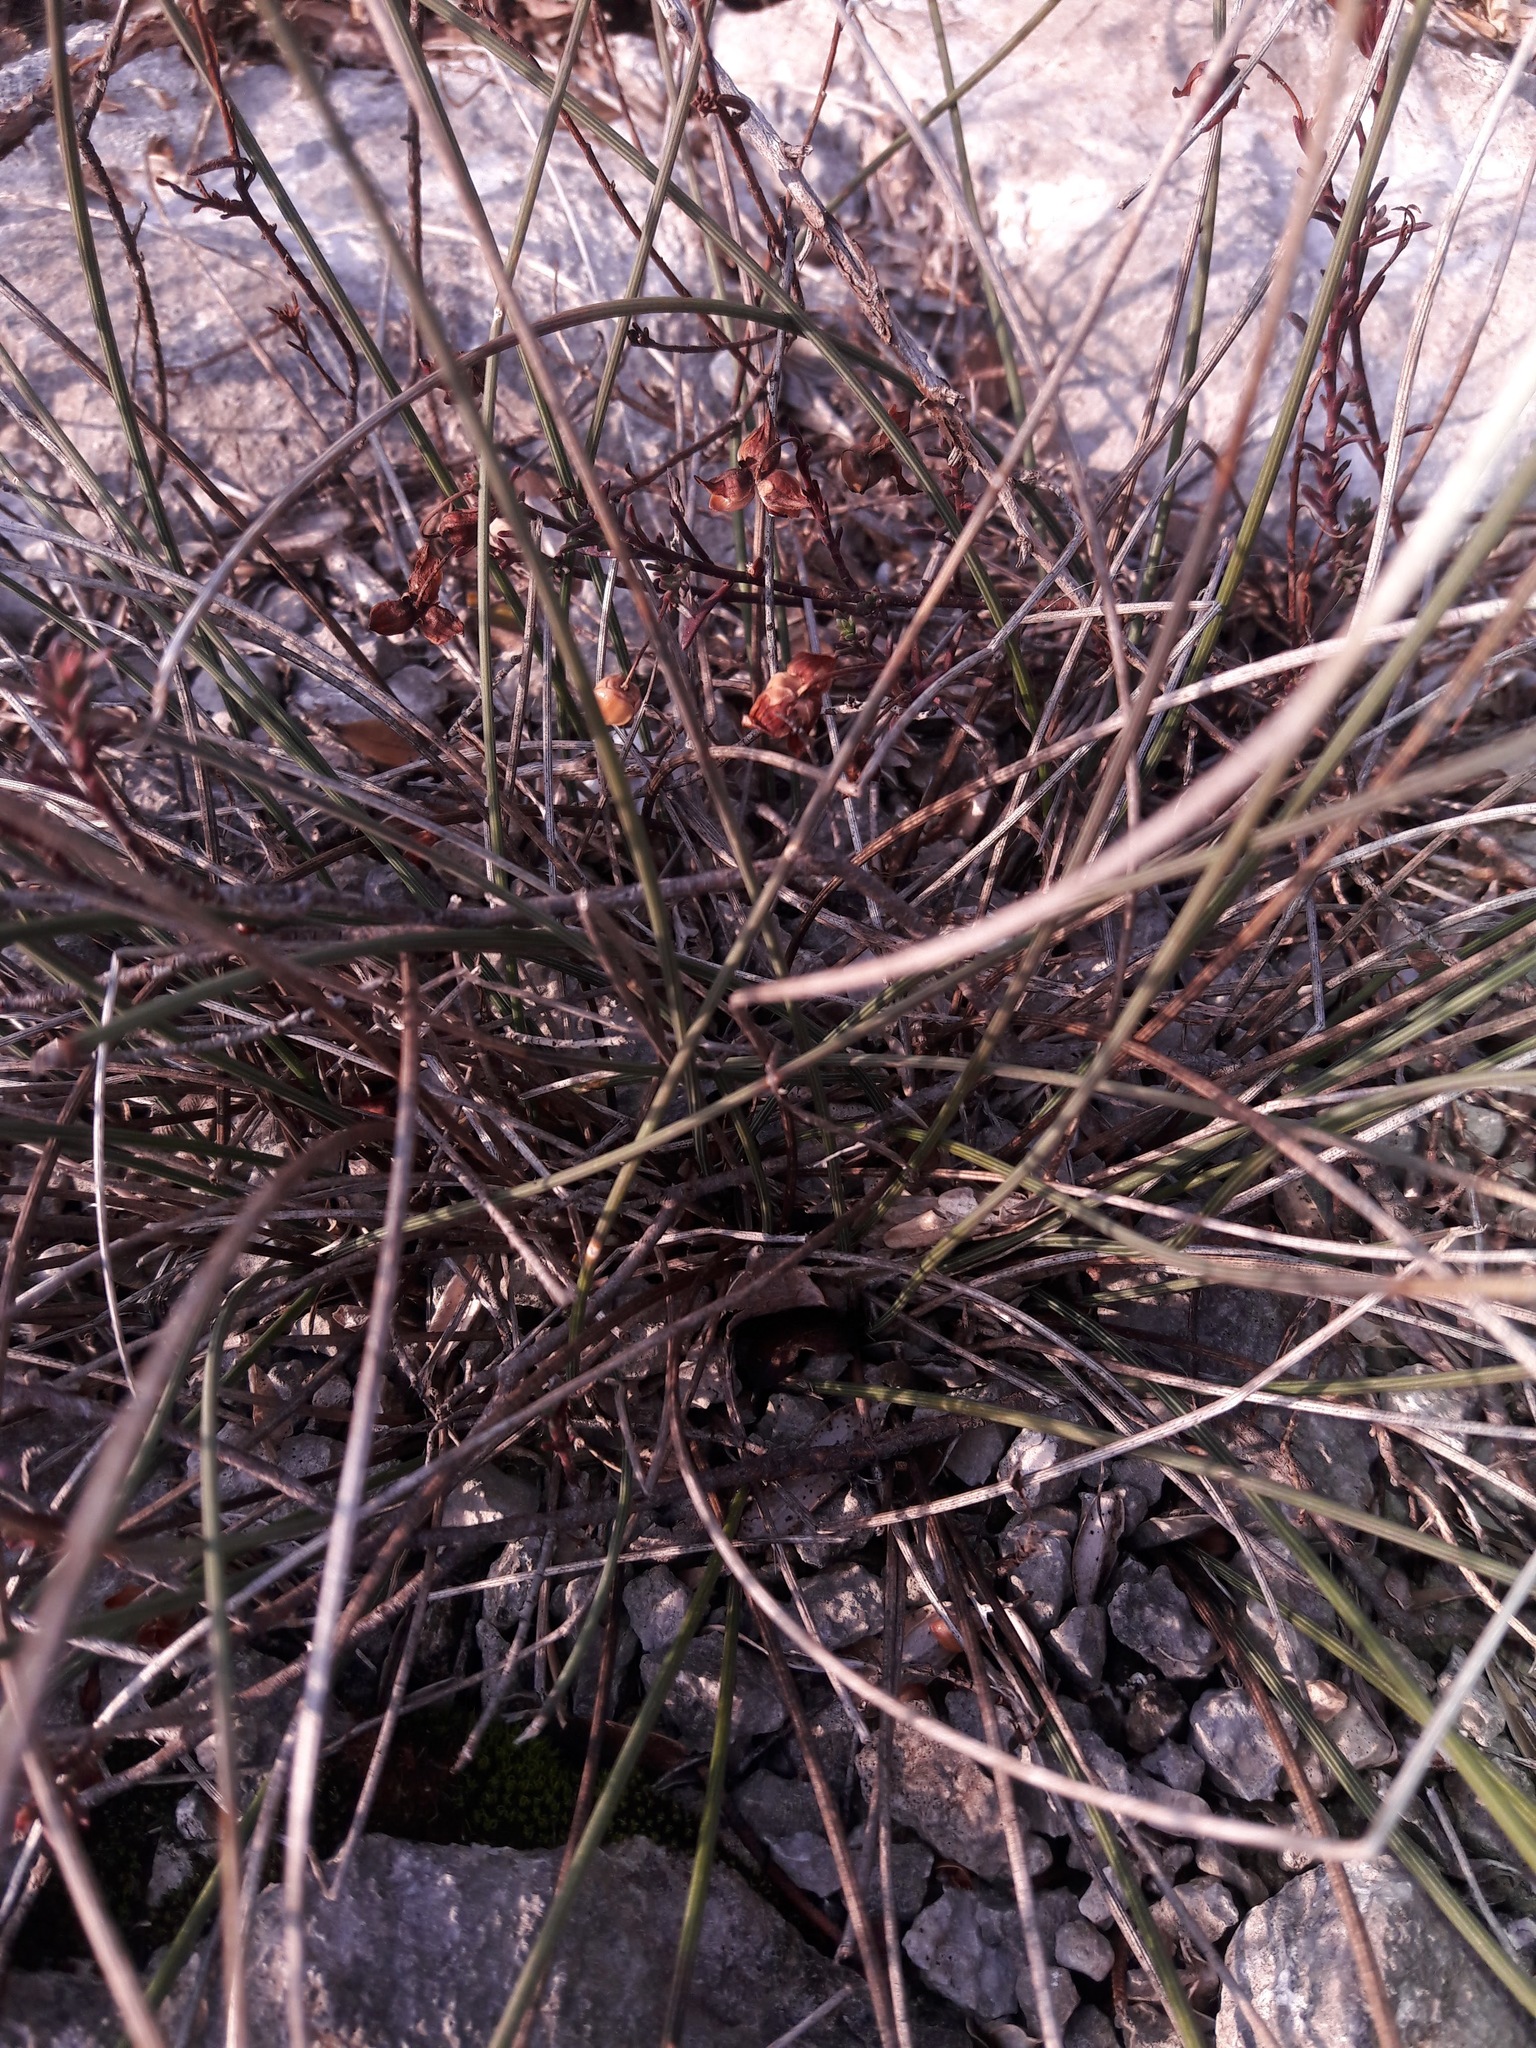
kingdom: Plantae
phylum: Tracheophyta
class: Liliopsida
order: Asparagales
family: Asparagaceae
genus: Aphyllanthes
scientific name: Aphyllanthes monspeliensis
